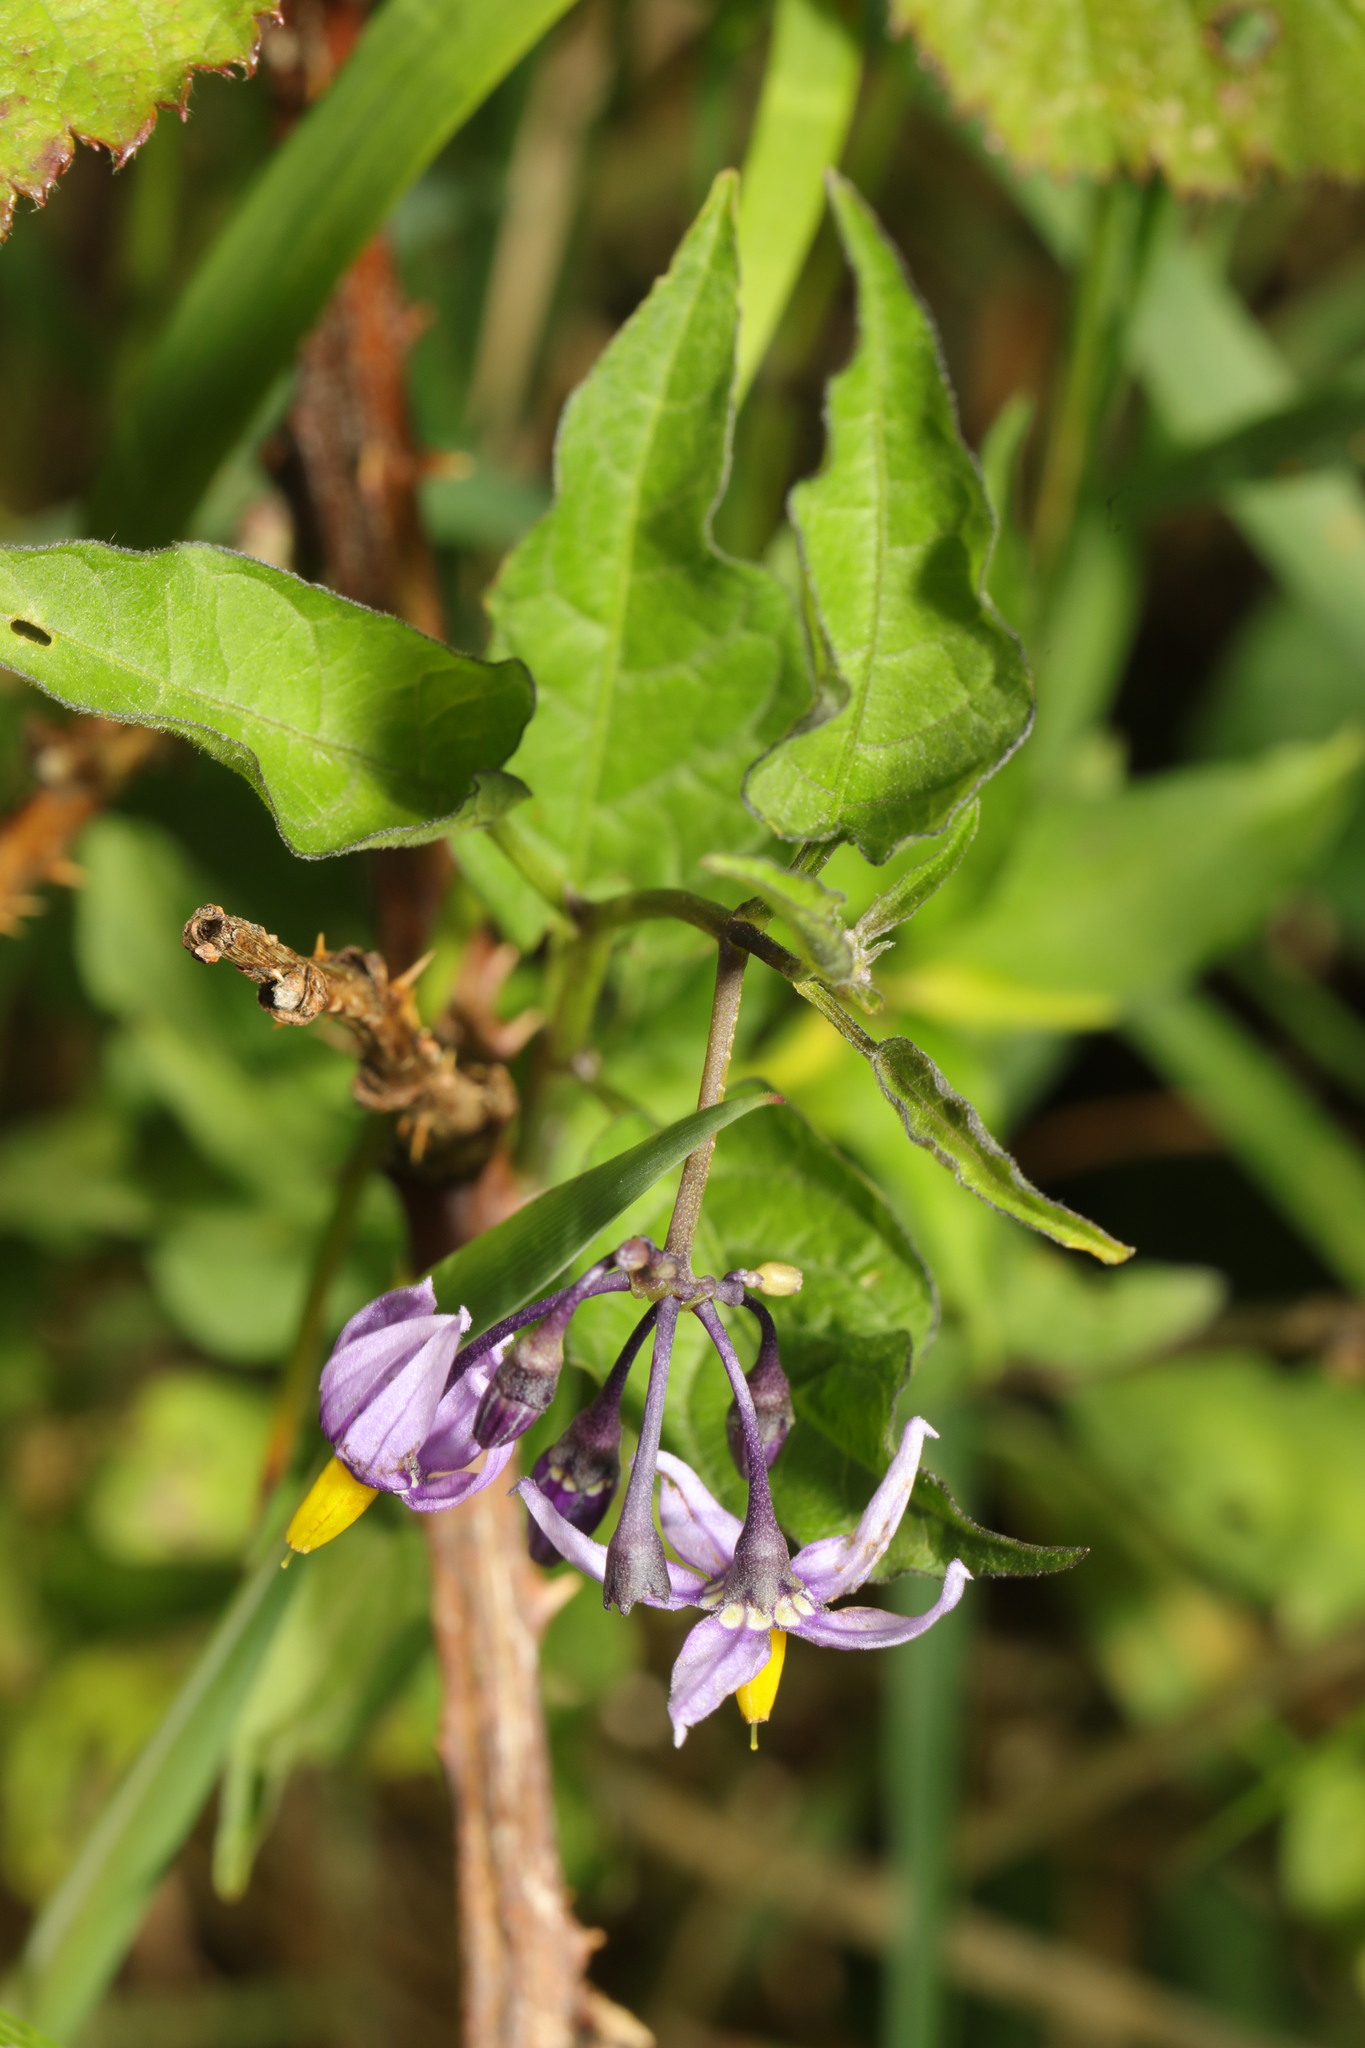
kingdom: Plantae
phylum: Tracheophyta
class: Magnoliopsida
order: Solanales
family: Solanaceae
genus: Solanum
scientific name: Solanum dulcamara
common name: Climbing nightshade
